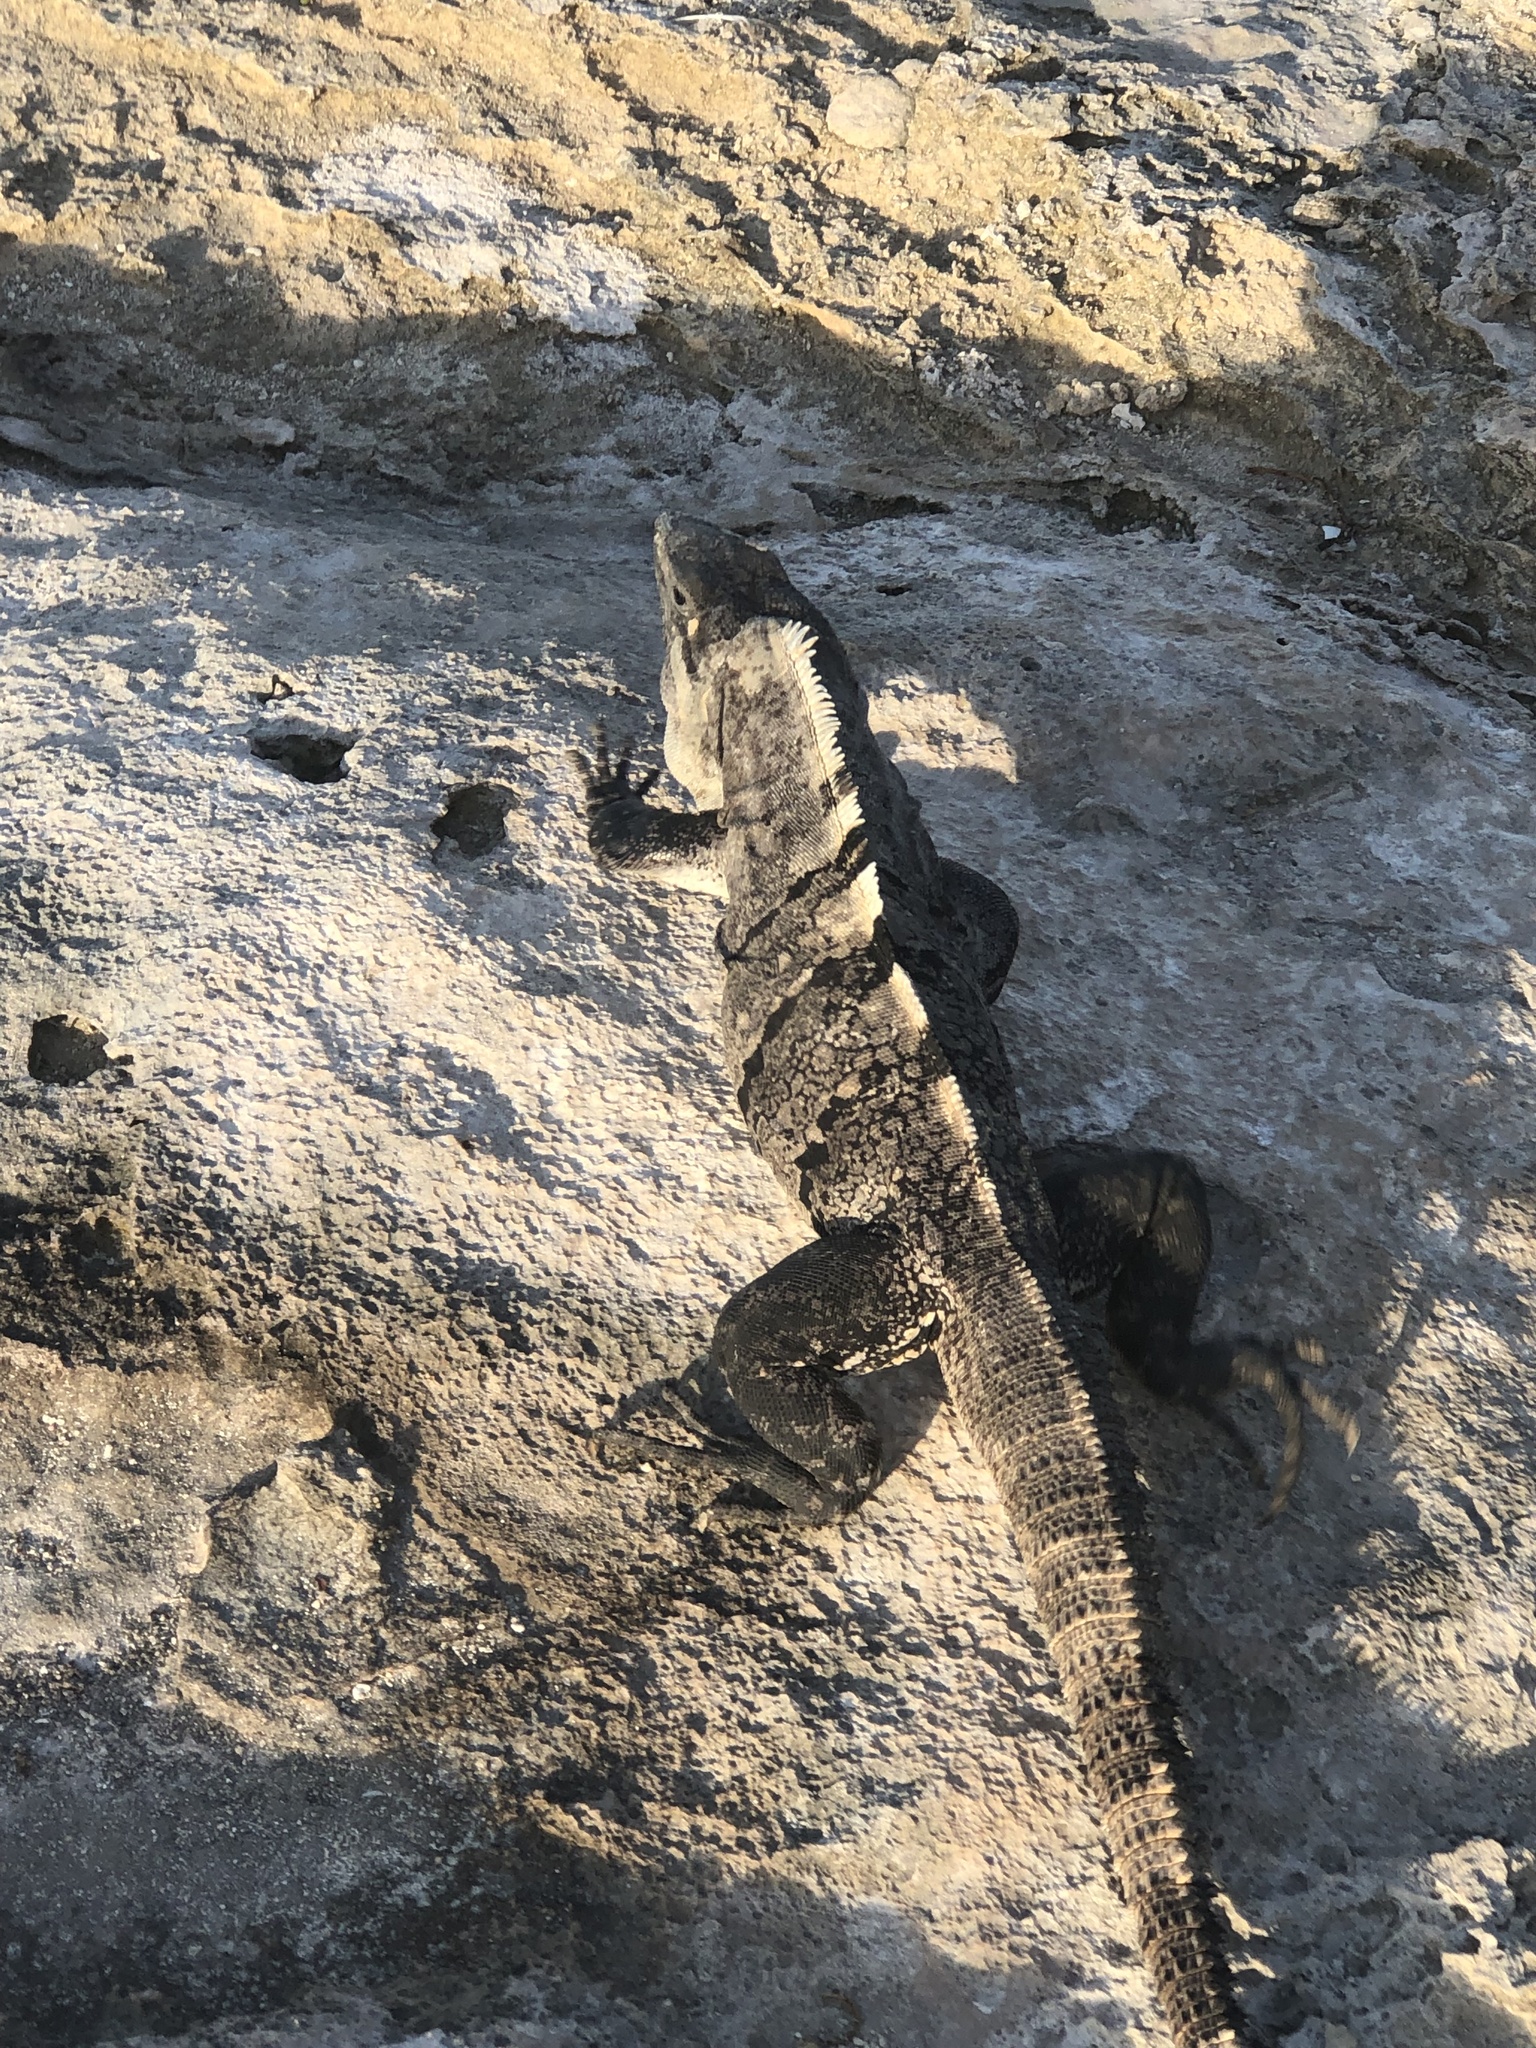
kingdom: Animalia
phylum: Chordata
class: Squamata
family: Iguanidae
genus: Ctenosaura
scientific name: Ctenosaura similis
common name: Black spiny-tailed iguana
